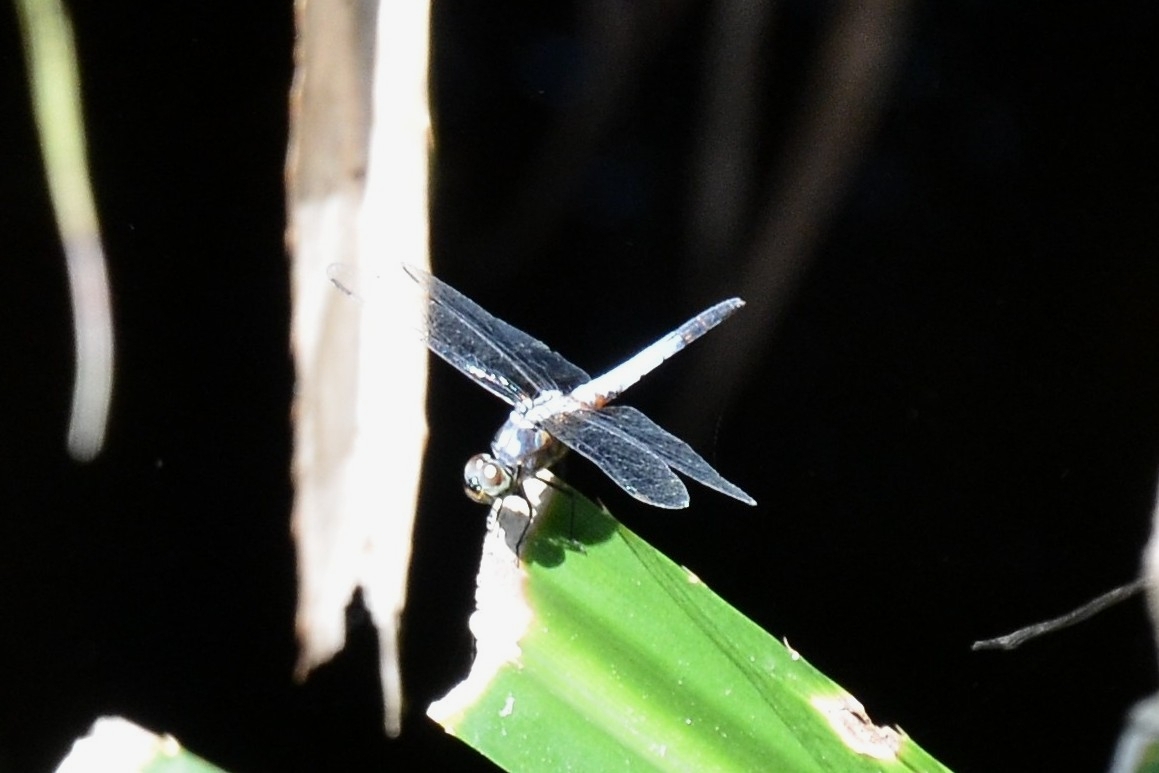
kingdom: Animalia
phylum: Arthropoda
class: Insecta
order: Odonata
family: Libellulidae
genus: Brachydiplax
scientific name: Brachydiplax chalybea
